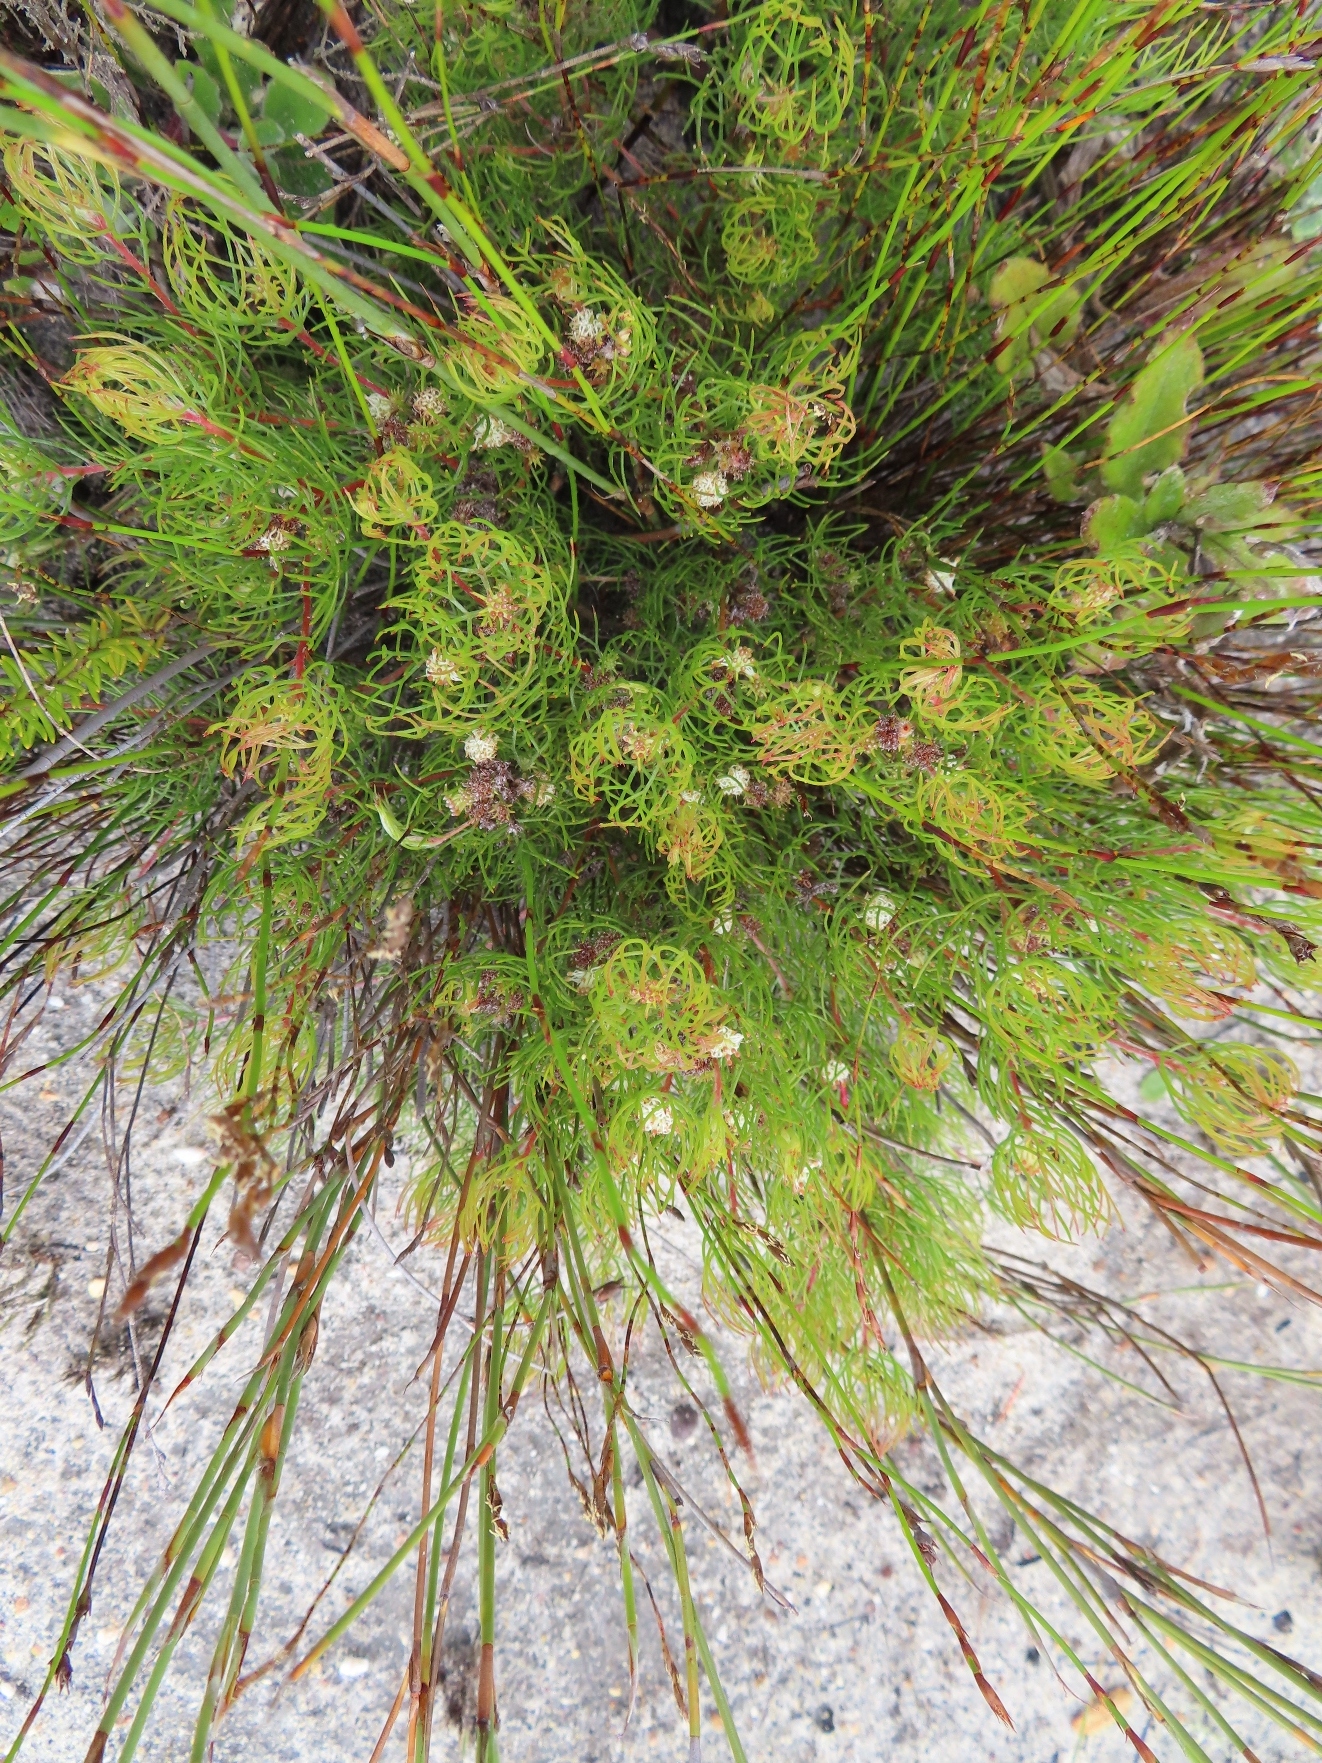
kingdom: Plantae
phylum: Tracheophyta
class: Magnoliopsida
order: Proteales
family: Proteaceae
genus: Serruria
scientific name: Serruria inconspicua
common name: Cryptic spiderhead
